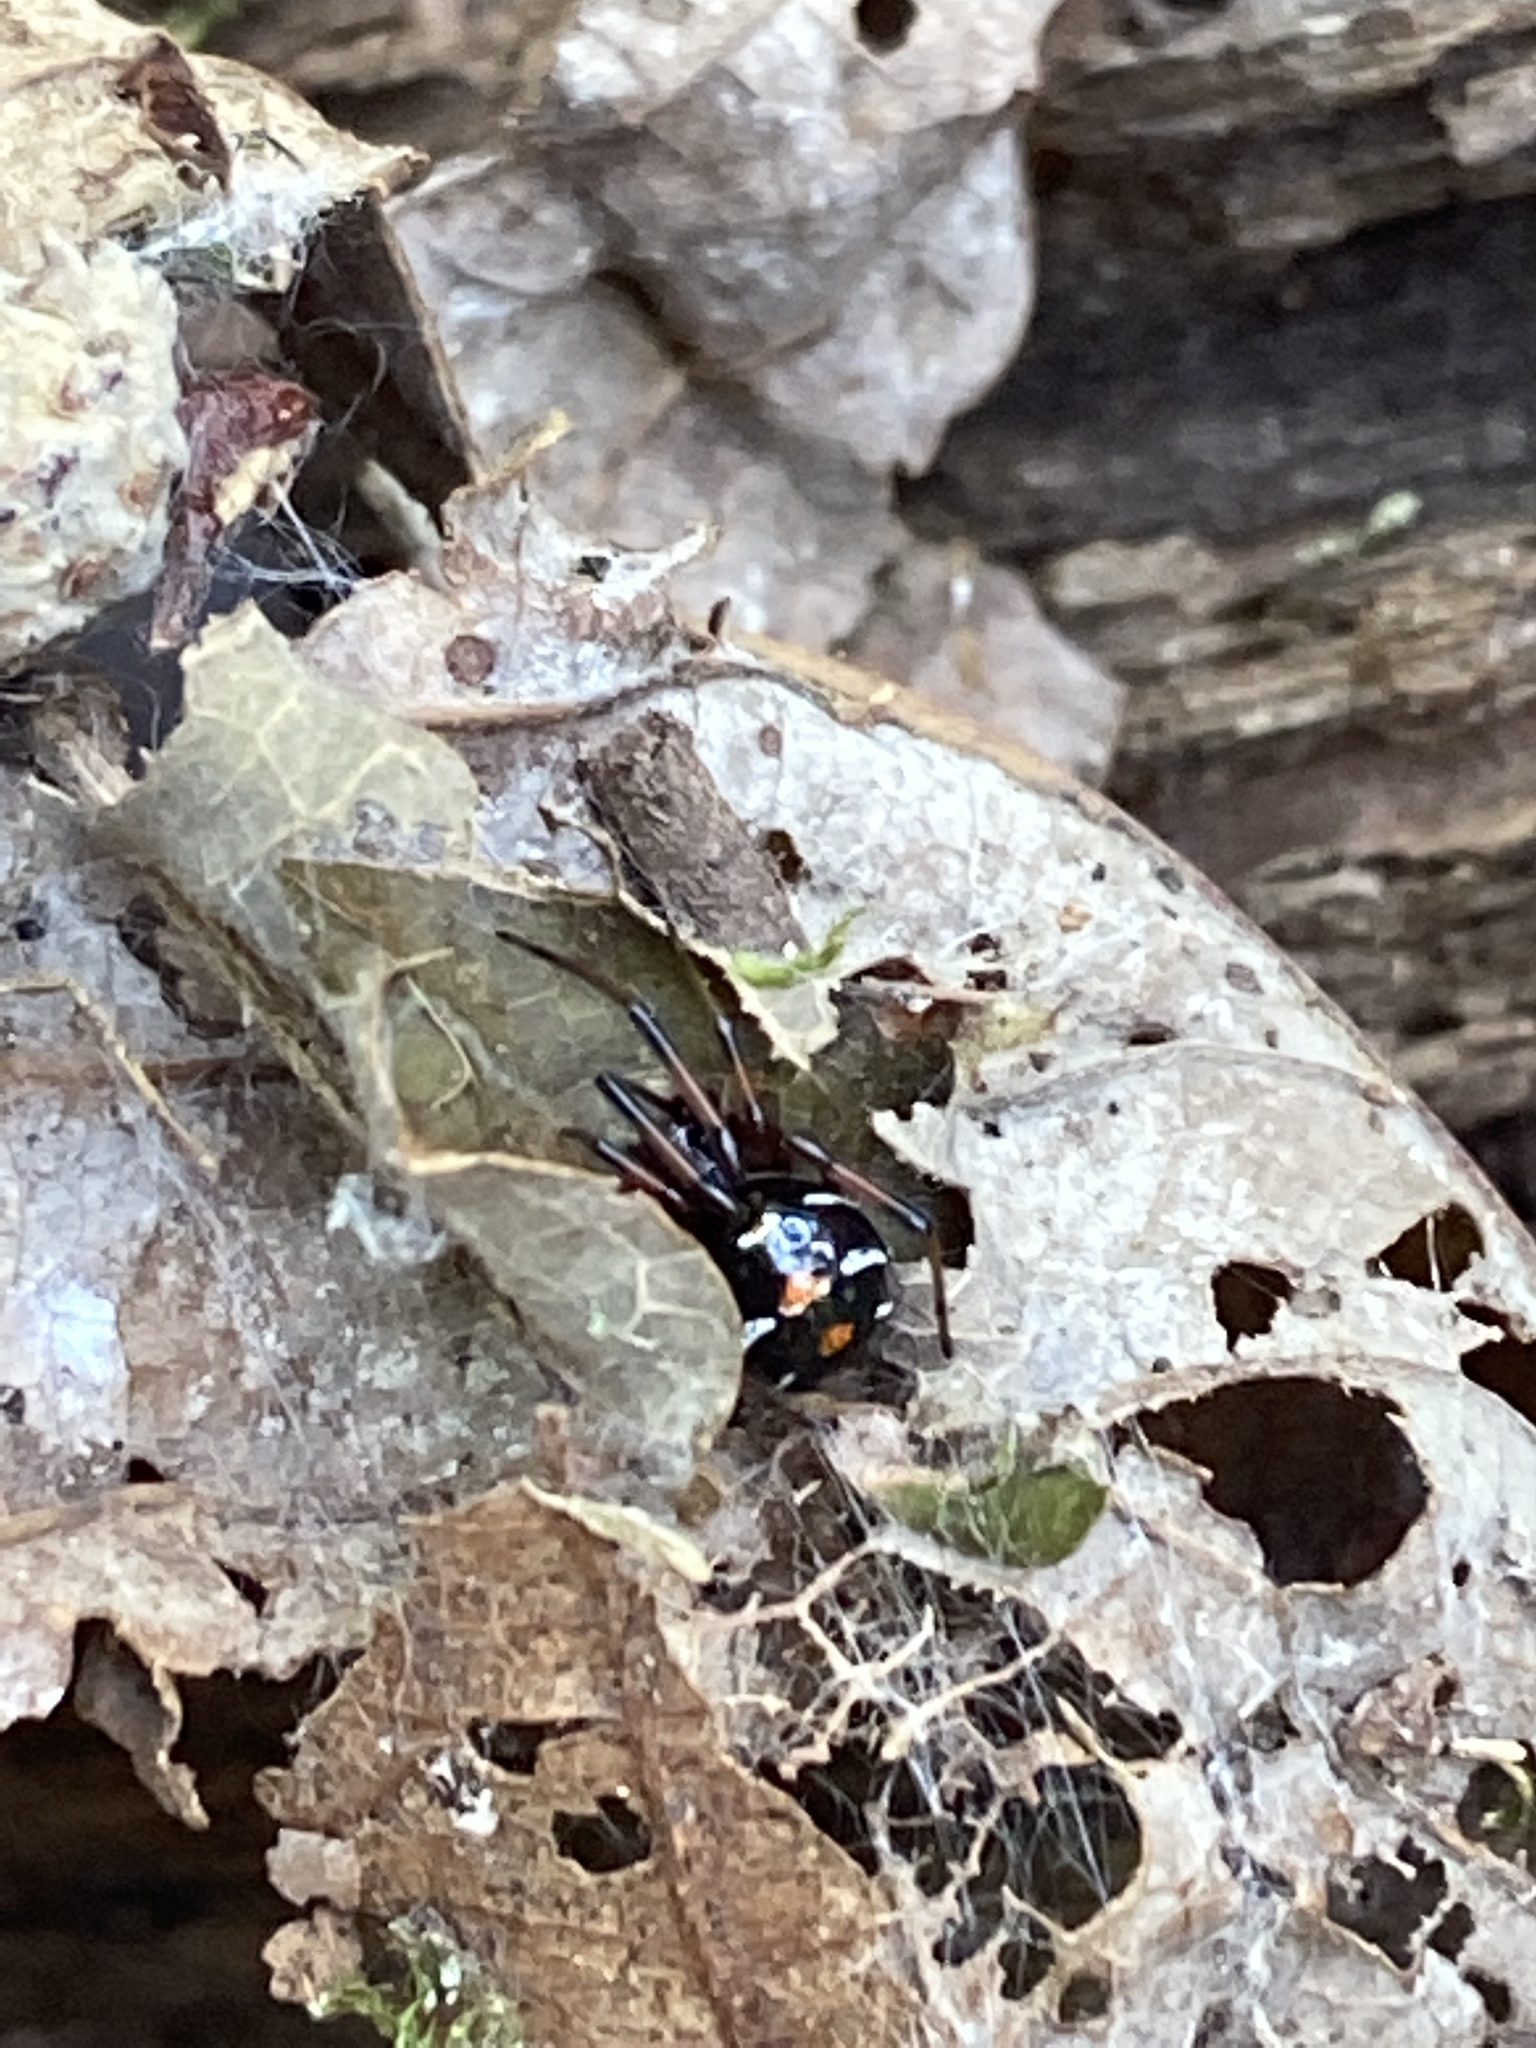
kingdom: Animalia
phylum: Arthropoda
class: Arachnida
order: Araneae
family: Theridiidae
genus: Latrodectus
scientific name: Latrodectus variolus
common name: Northern black widow
